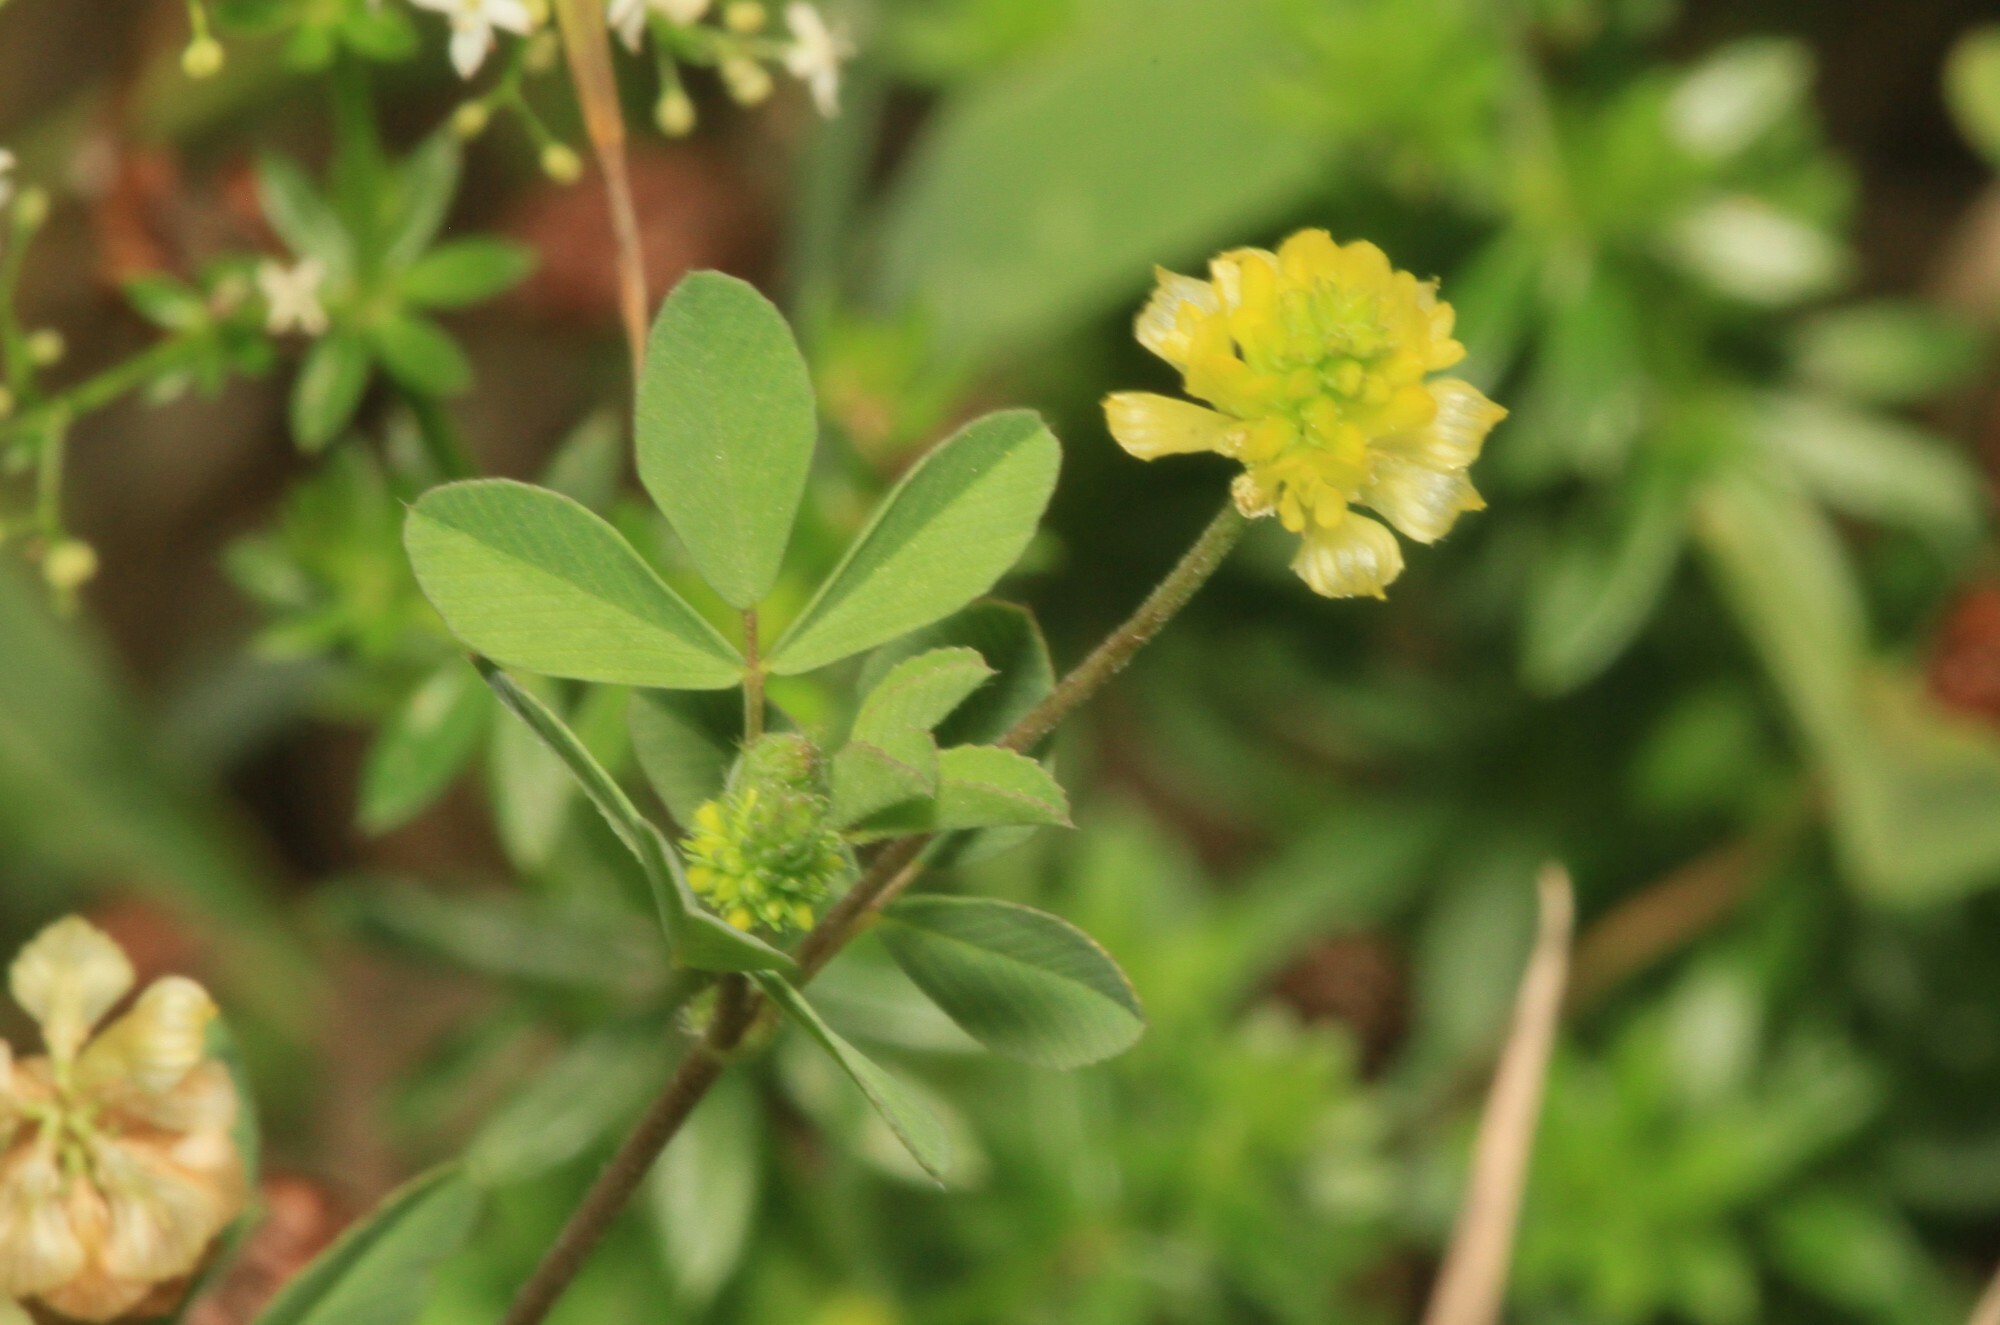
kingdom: Plantae
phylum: Tracheophyta
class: Magnoliopsida
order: Fabales
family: Fabaceae
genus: Trifolium
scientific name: Trifolium campestre
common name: Field clover
